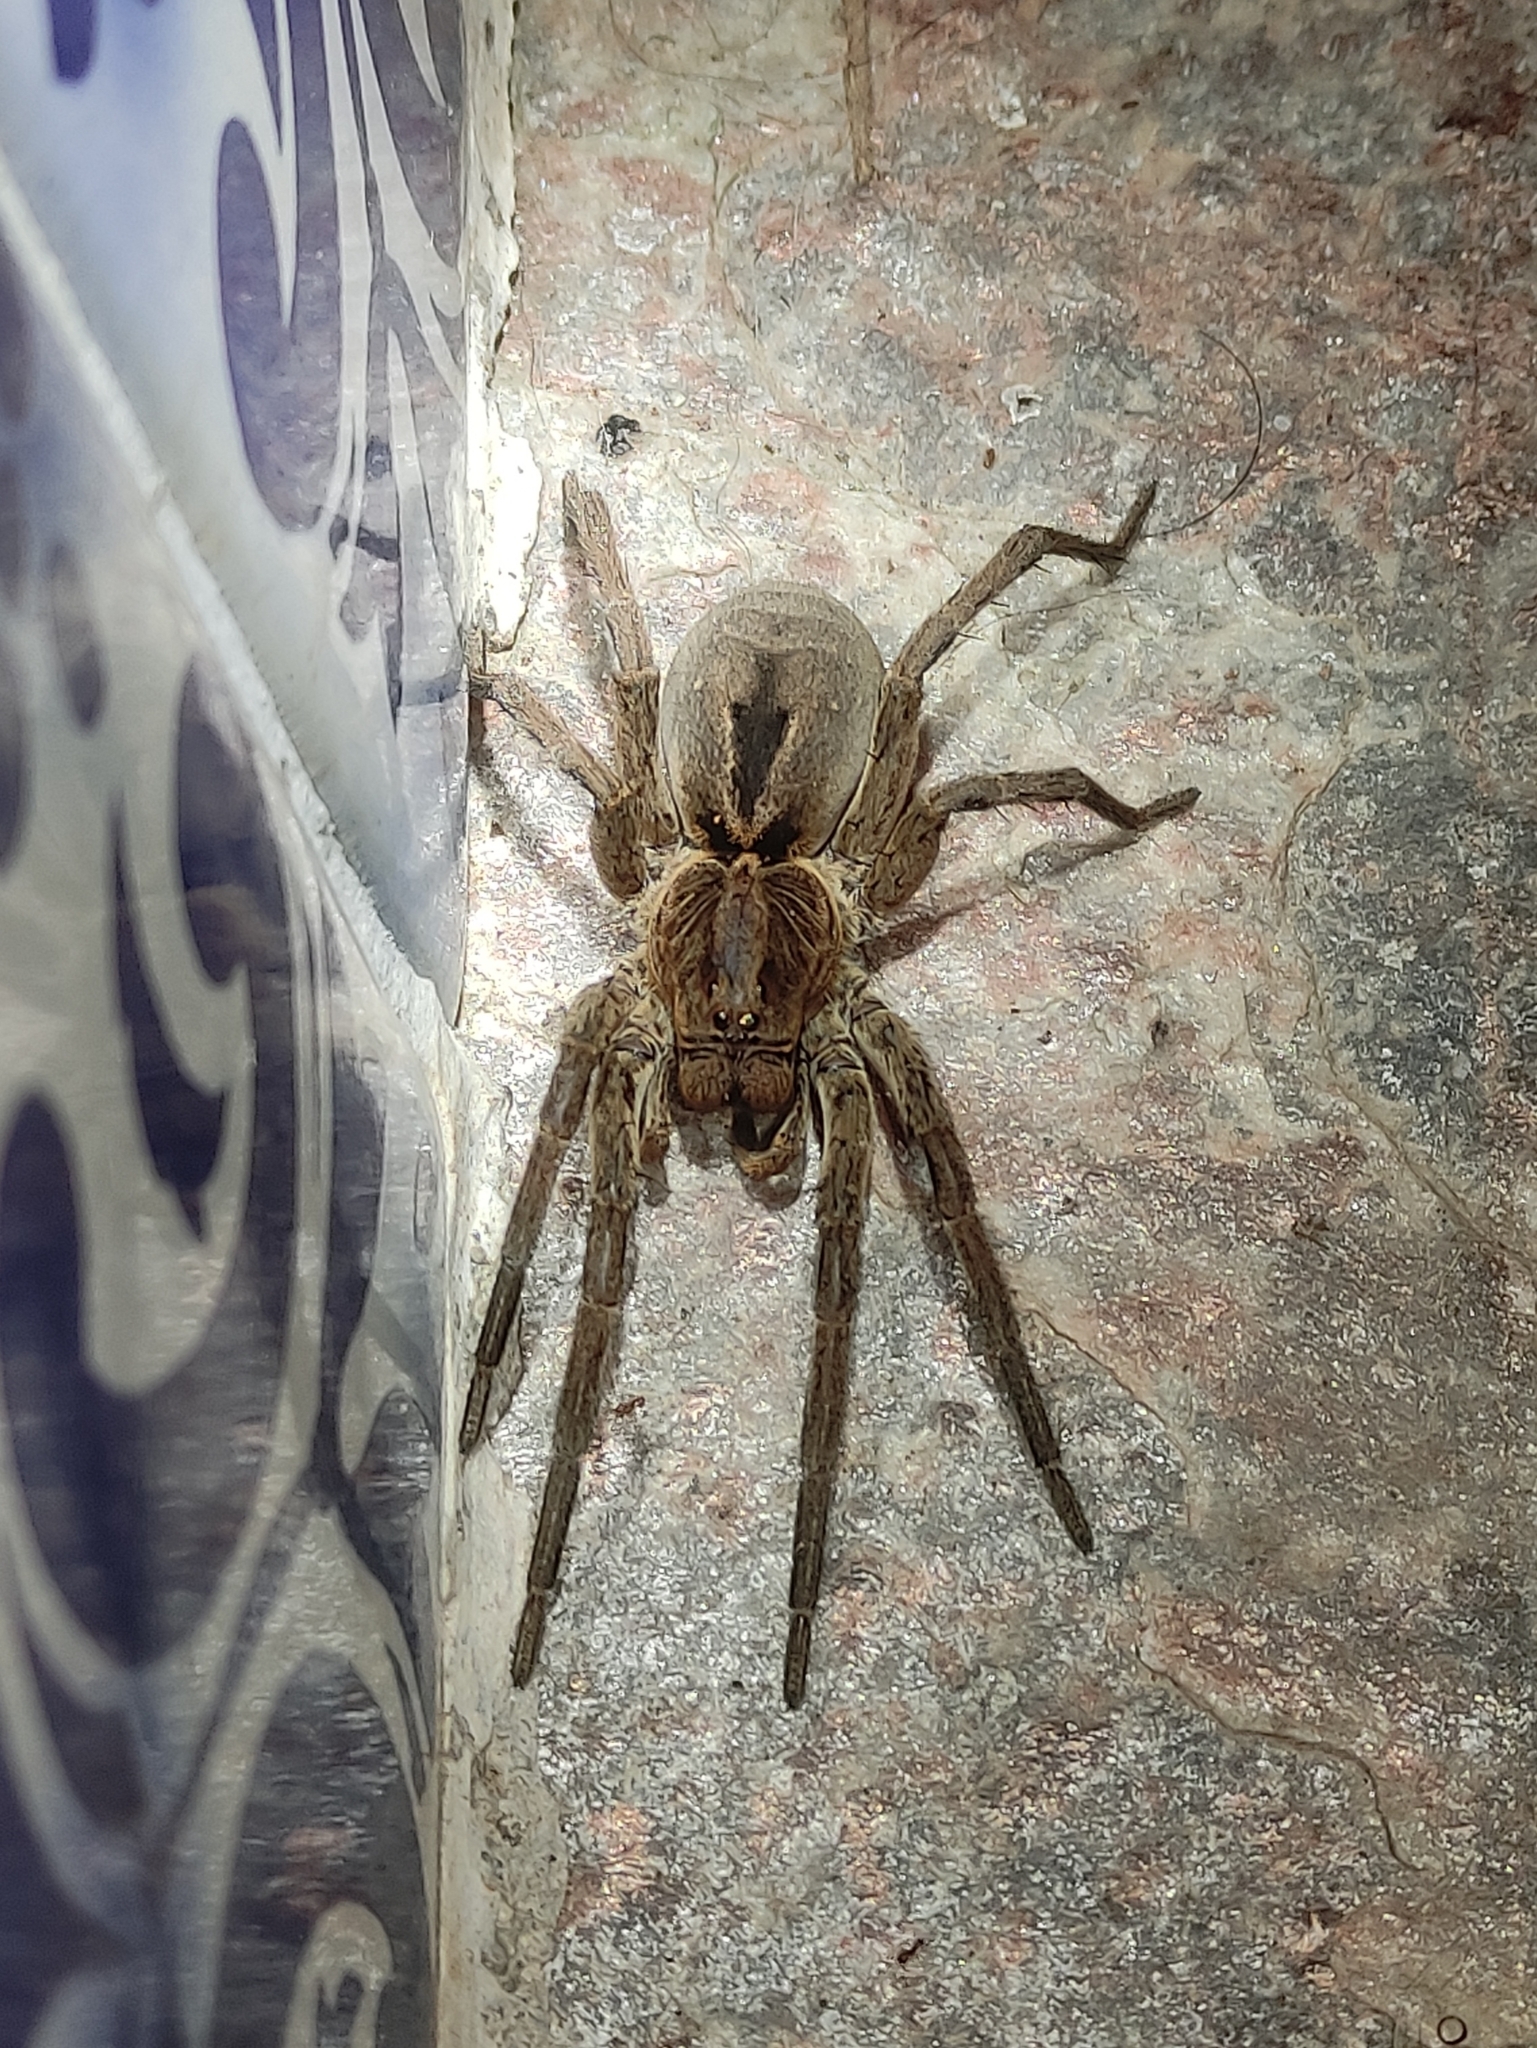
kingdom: Animalia
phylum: Arthropoda
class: Arachnida
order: Araneae
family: Lycosidae
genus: Lycosa
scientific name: Lycosa erythrognatha
